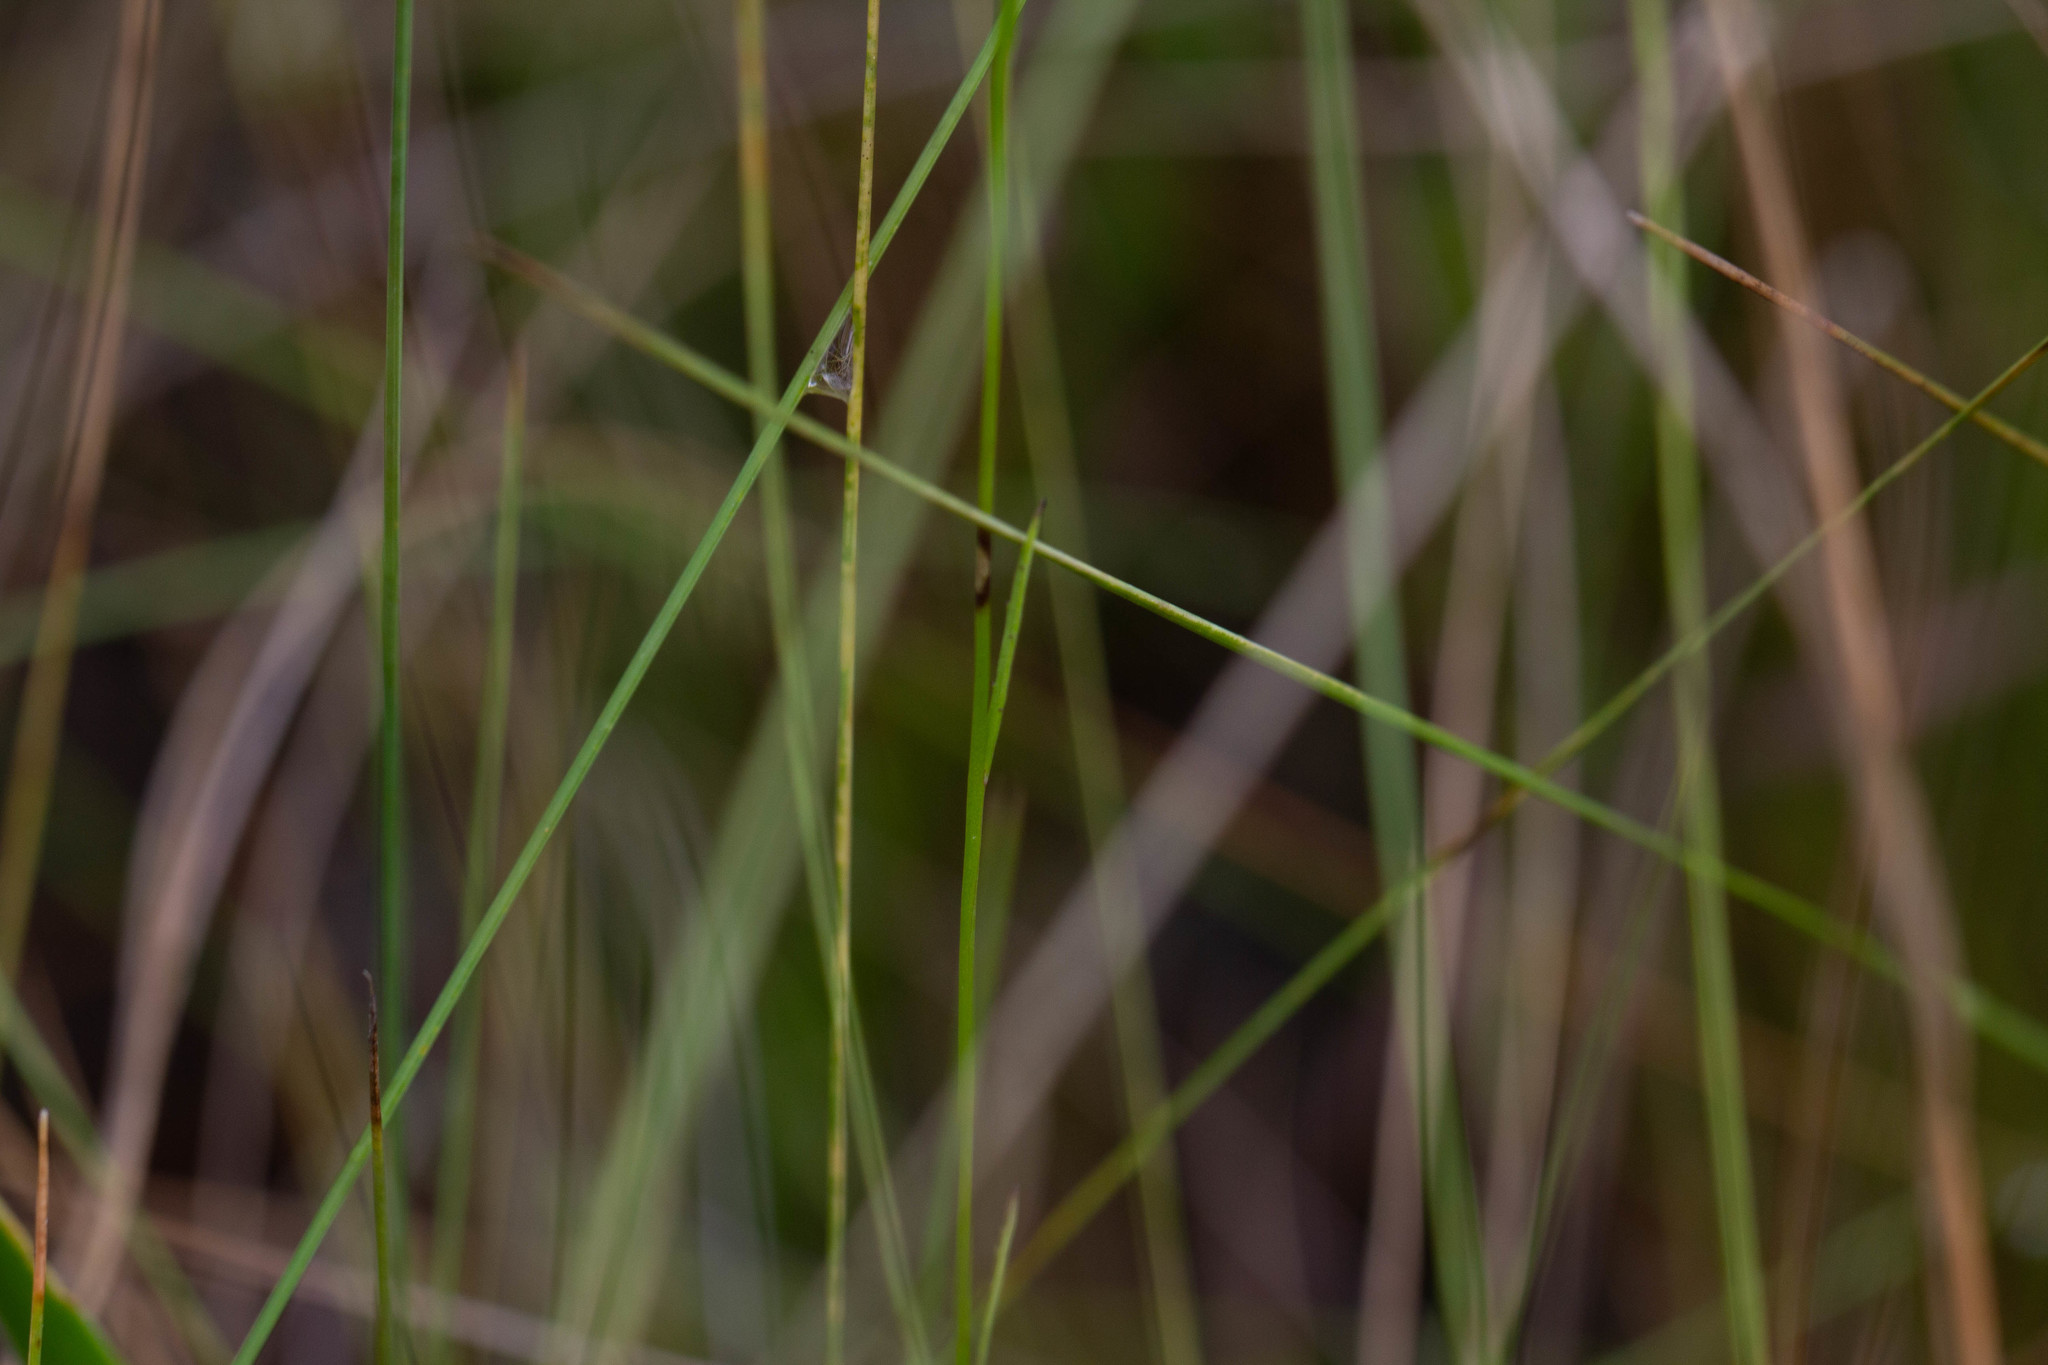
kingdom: Plantae
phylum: Tracheophyta
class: Magnoliopsida
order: Asterales
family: Campanulaceae
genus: Lobelia
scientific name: Lobelia nuttallii
